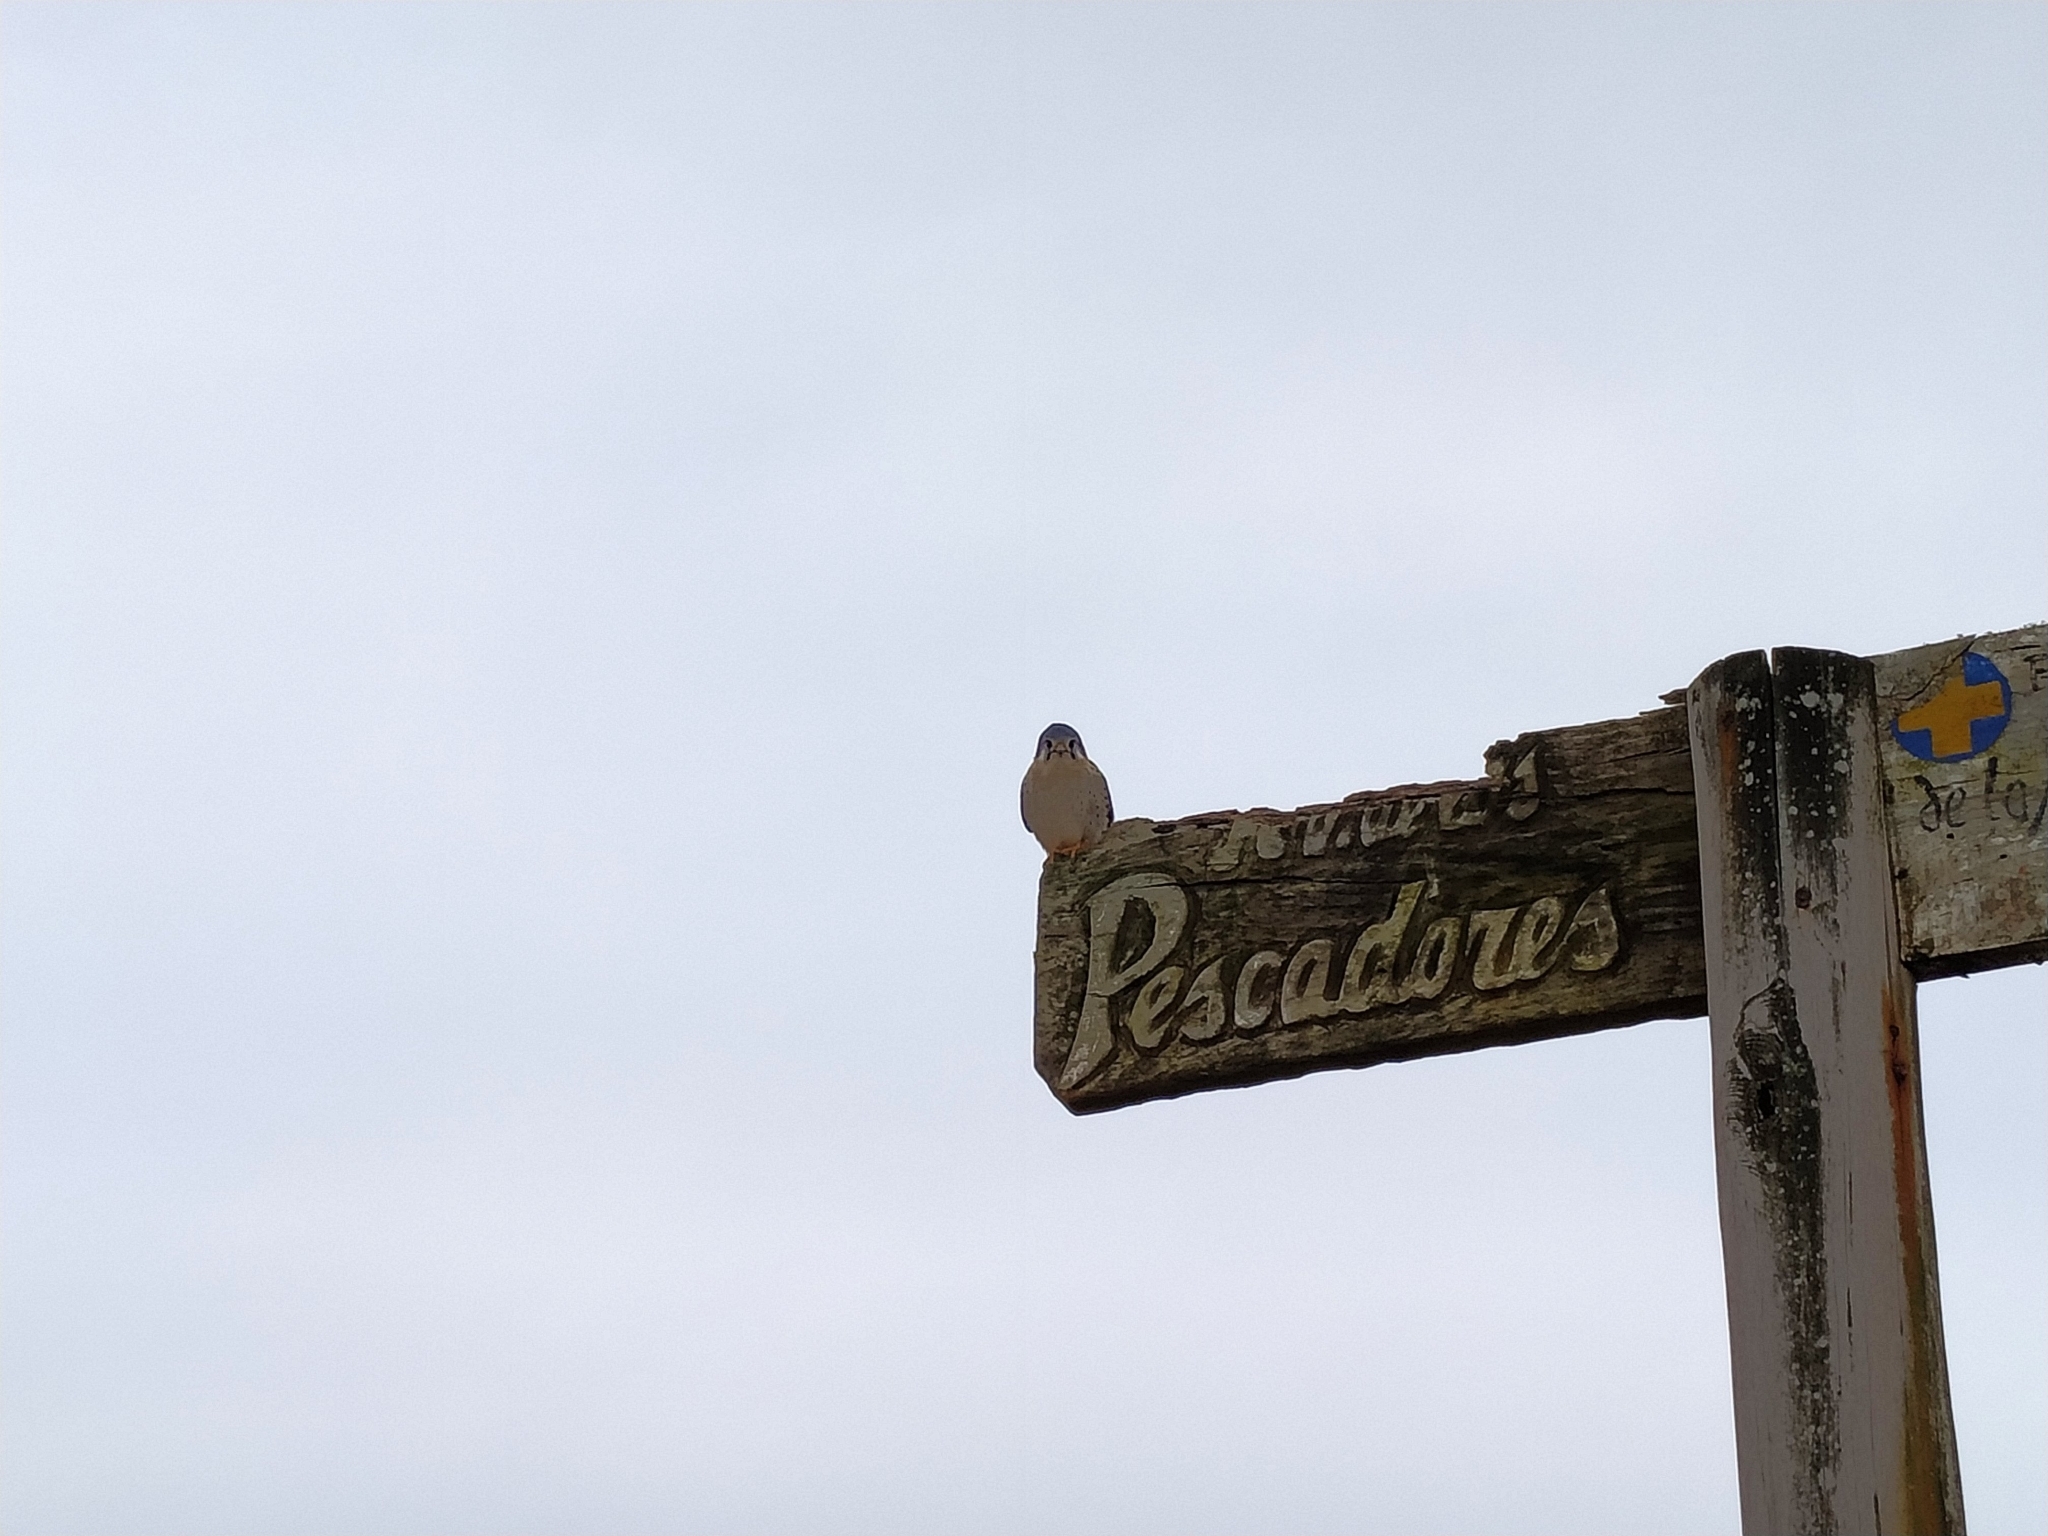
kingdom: Animalia
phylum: Chordata
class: Aves
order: Falconiformes
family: Falconidae
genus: Falco
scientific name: Falco sparverius
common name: American kestrel
